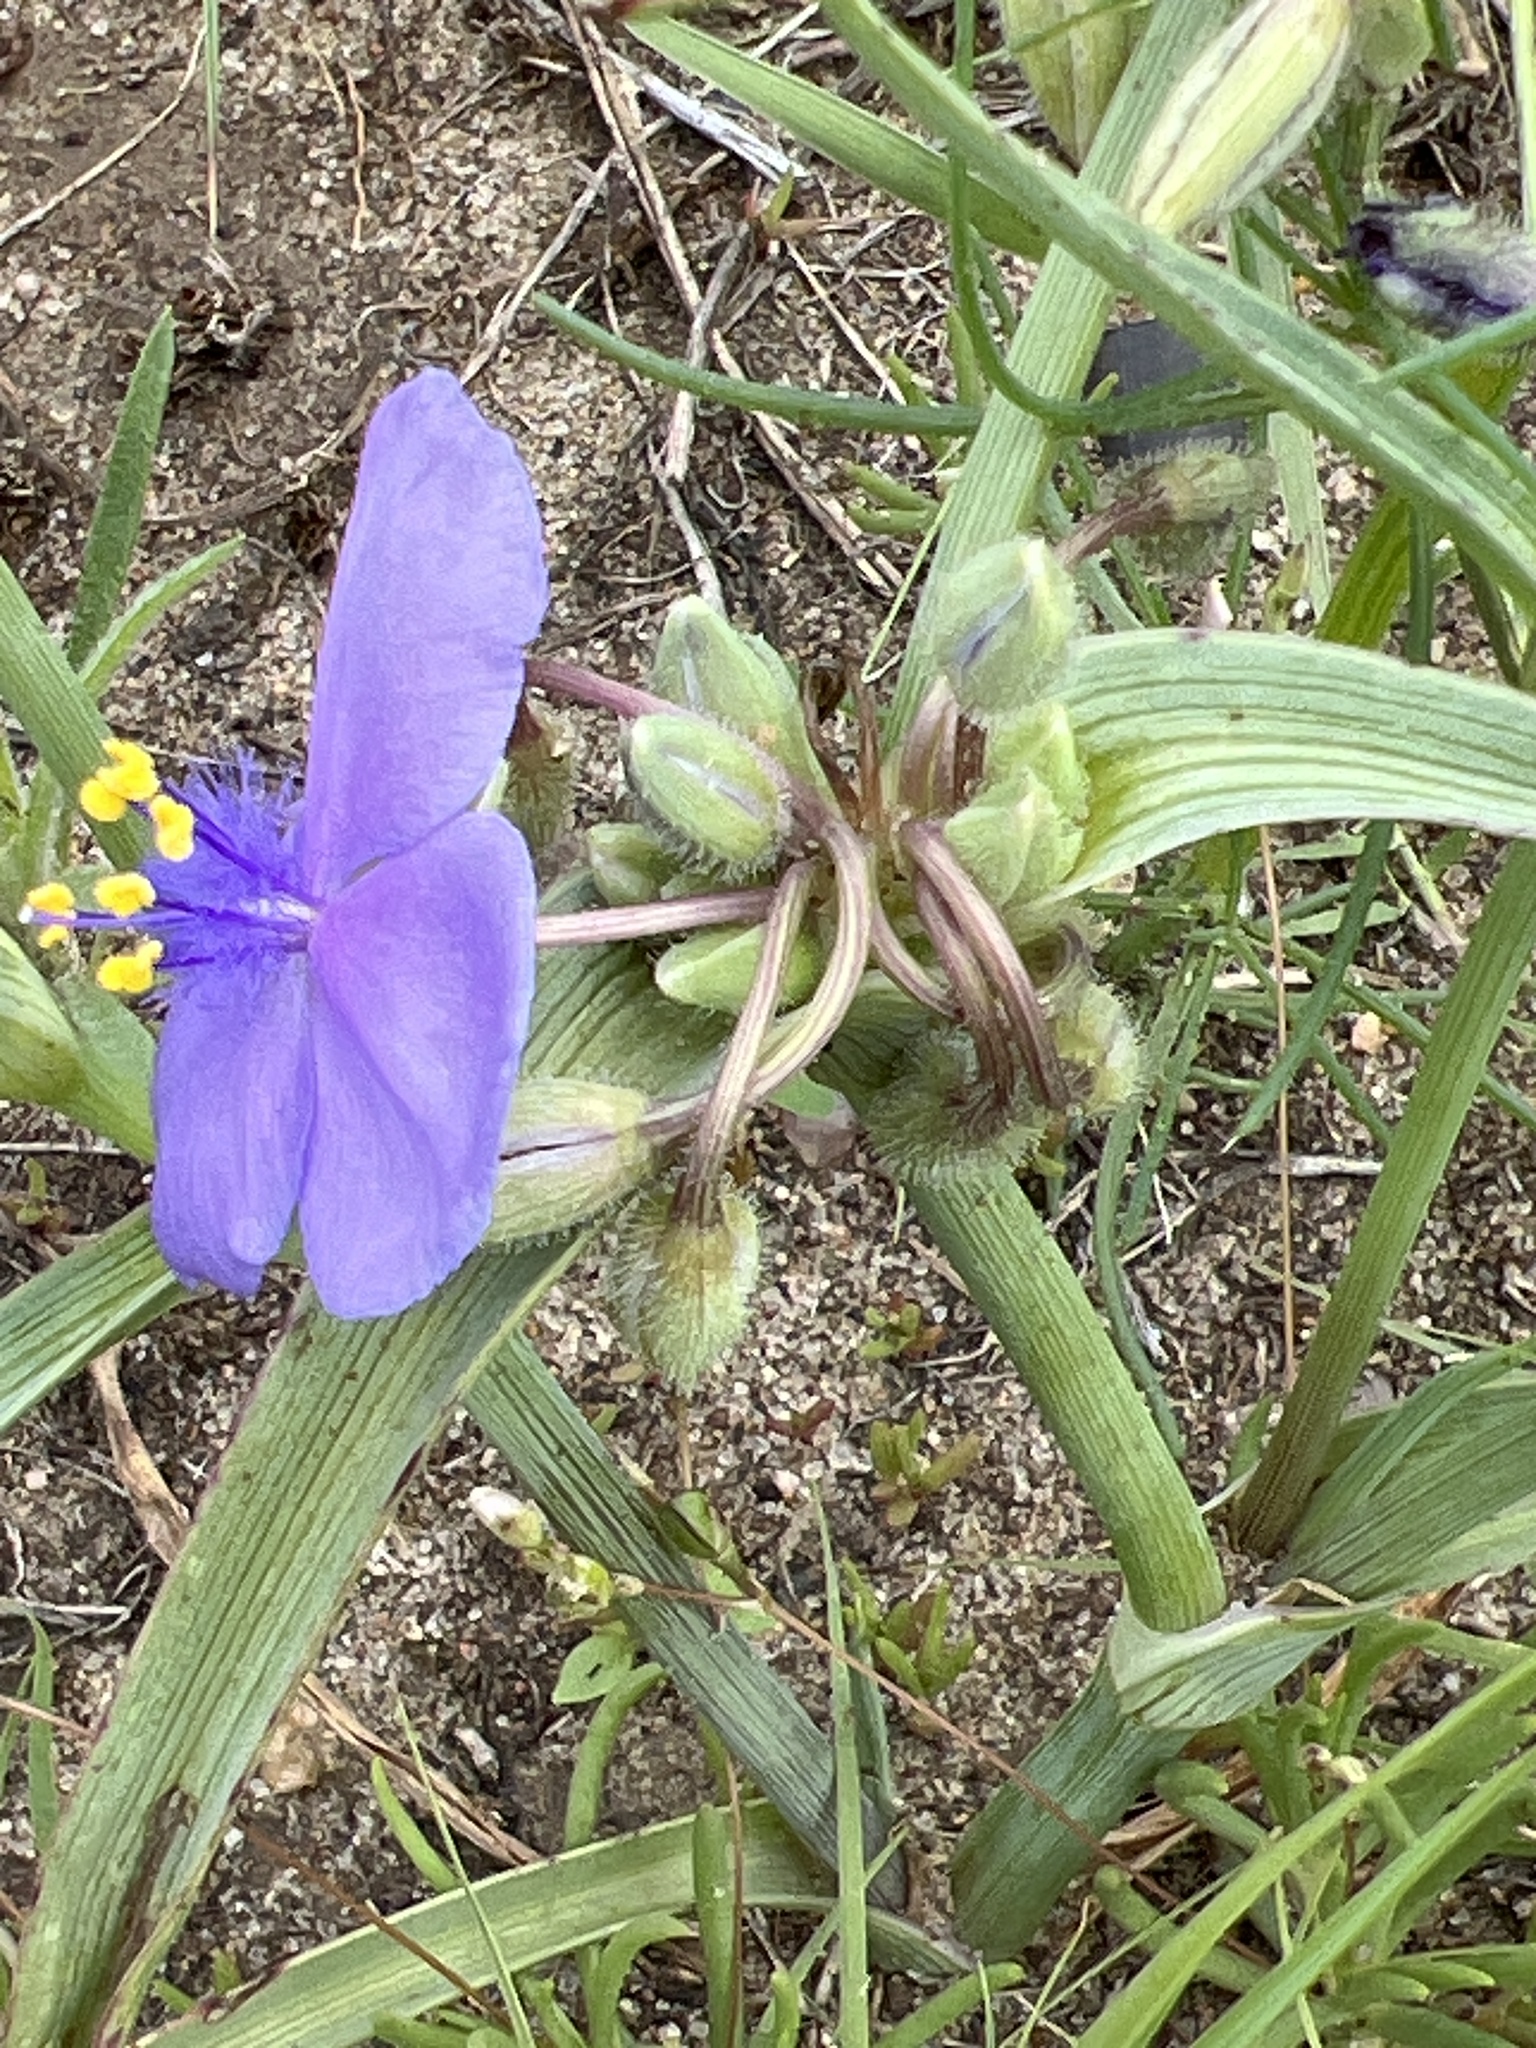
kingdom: Plantae
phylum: Tracheophyta
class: Liliopsida
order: Commelinales
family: Commelinaceae
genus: Tradescantia
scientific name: Tradescantia occidentalis
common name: Prairie spiderwort
